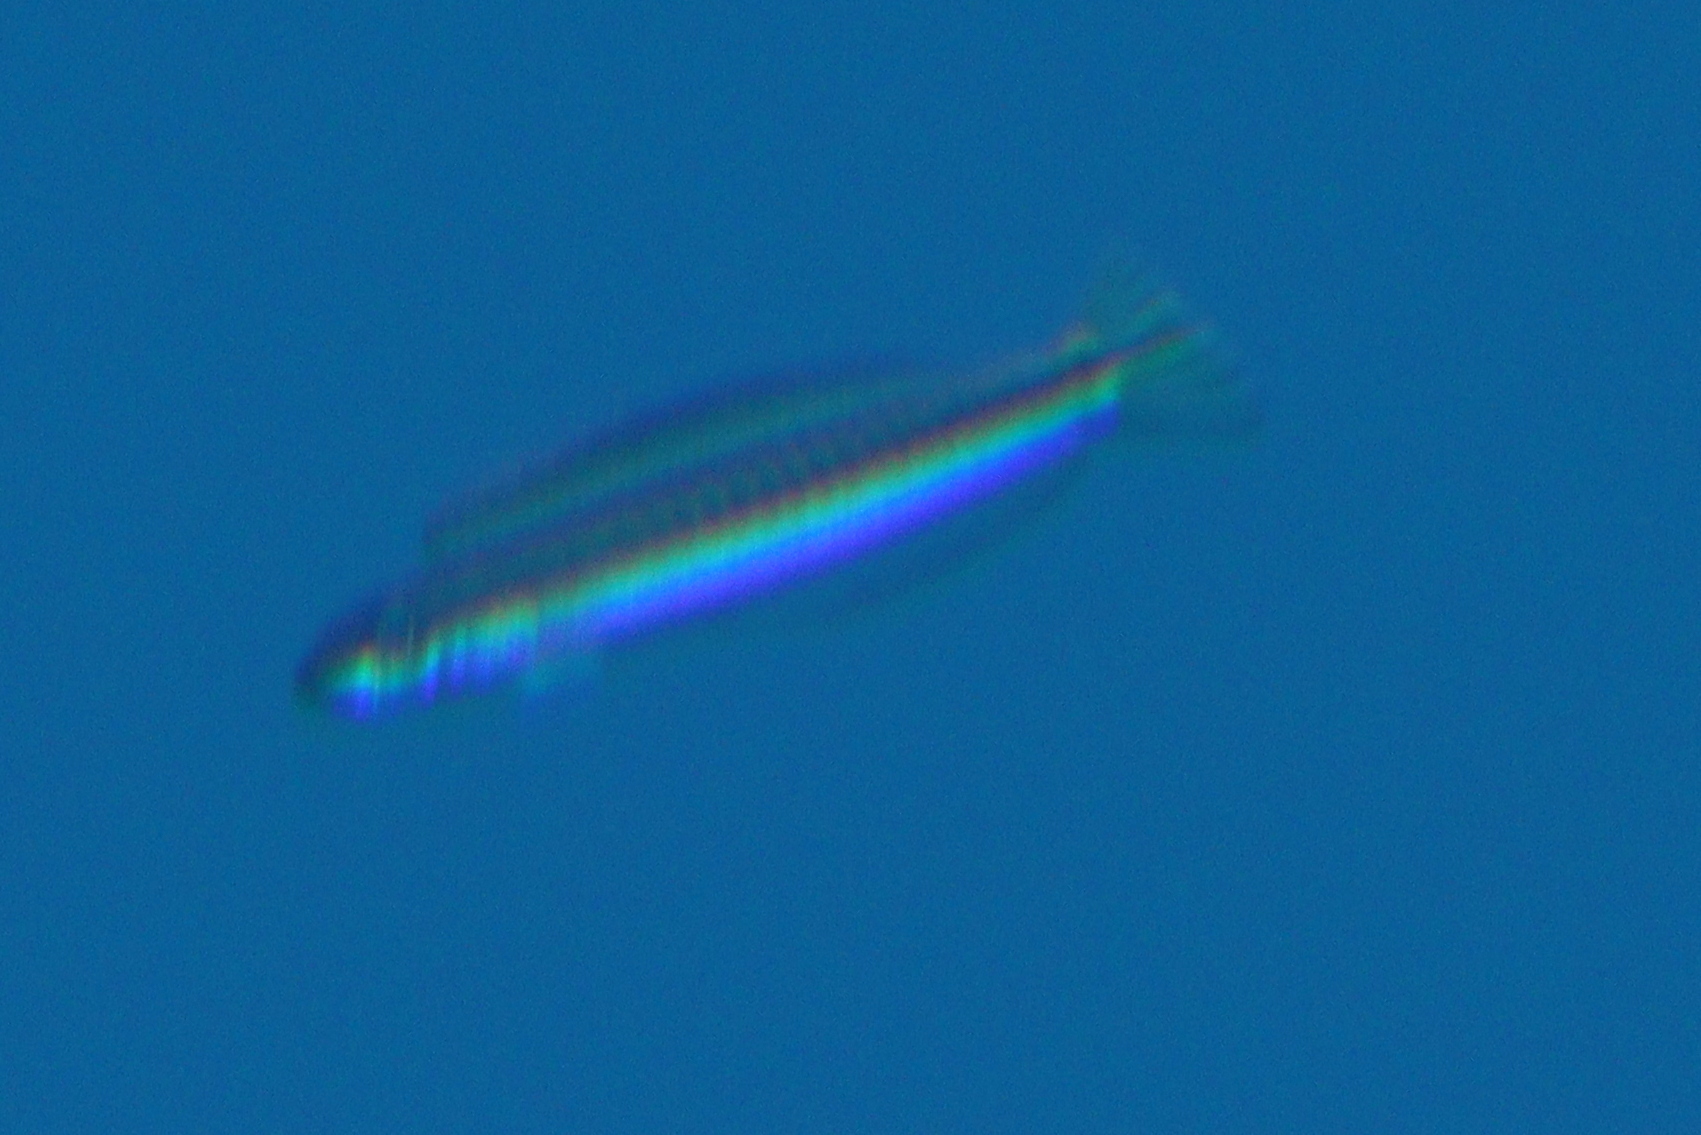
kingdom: Animalia
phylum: Chordata
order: Perciformes
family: Blenniidae
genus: Plagiotremus
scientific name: Plagiotremus tapeinosoma
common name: Hit and run blenny
